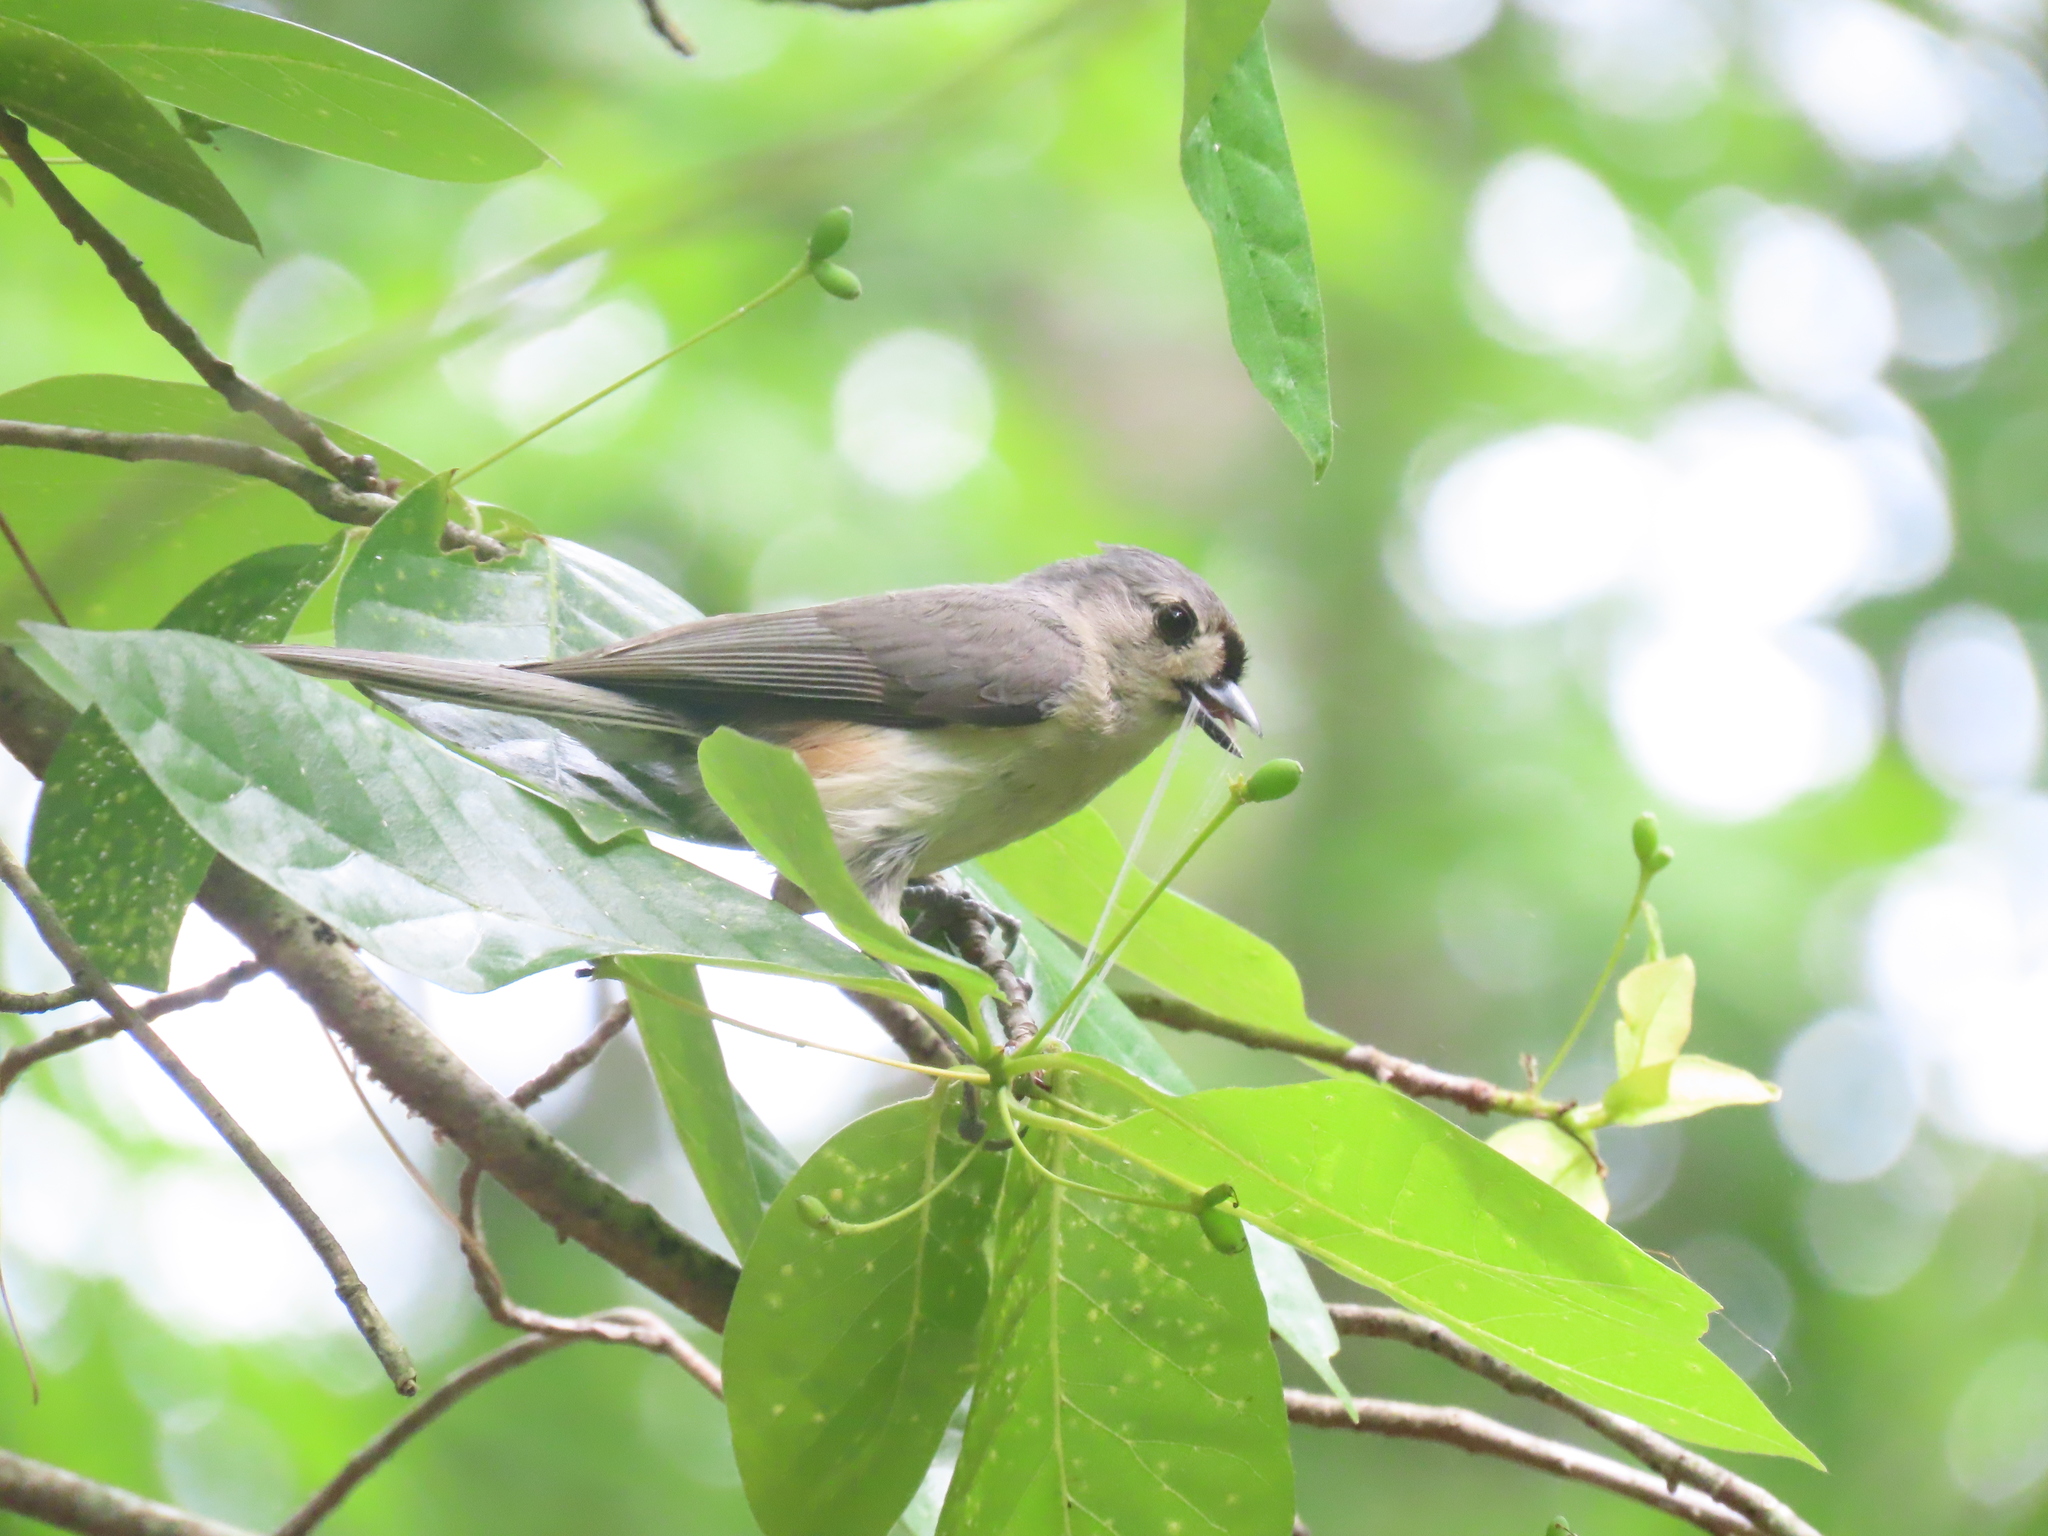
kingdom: Animalia
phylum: Chordata
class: Aves
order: Passeriformes
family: Paridae
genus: Baeolophus
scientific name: Baeolophus bicolor
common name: Tufted titmouse
